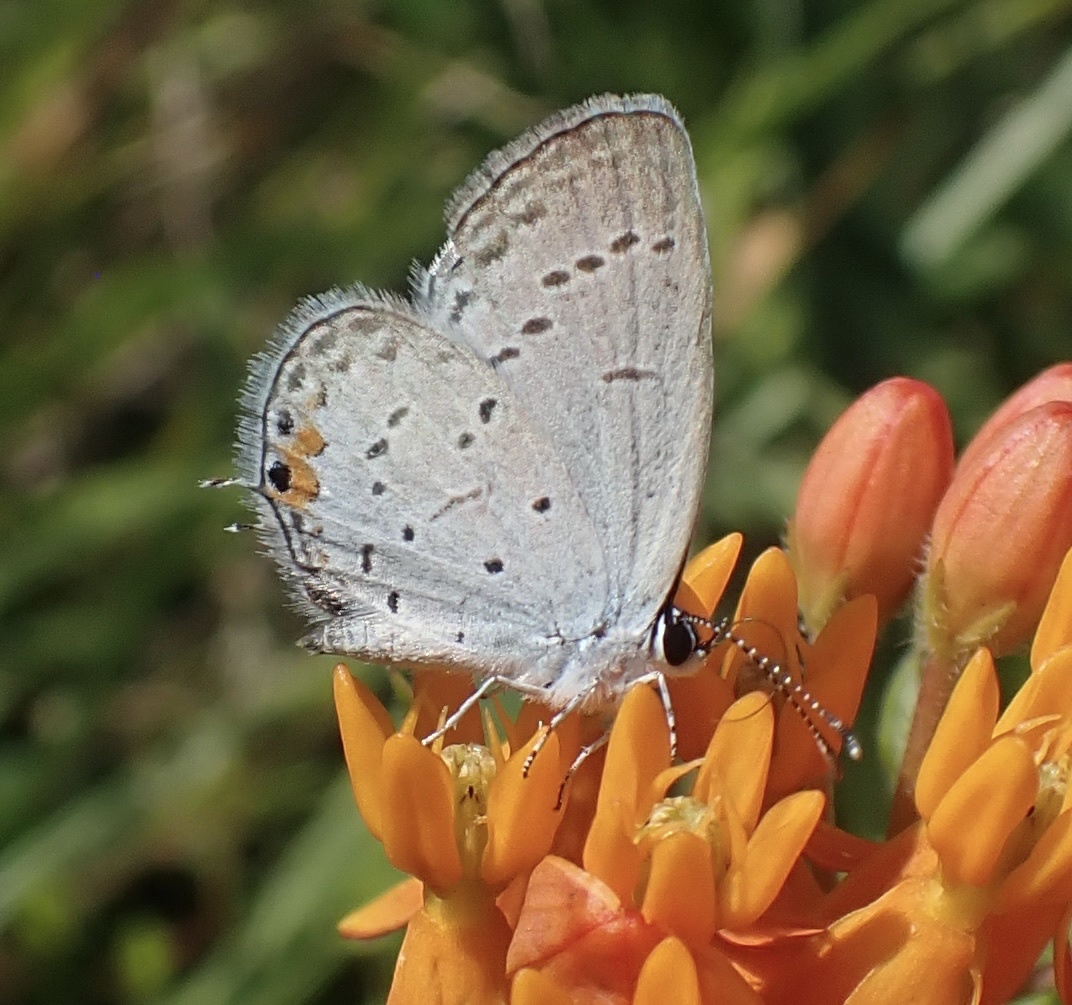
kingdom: Animalia
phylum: Arthropoda
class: Insecta
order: Lepidoptera
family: Lycaenidae
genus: Elkalyce
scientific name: Elkalyce comyntas
